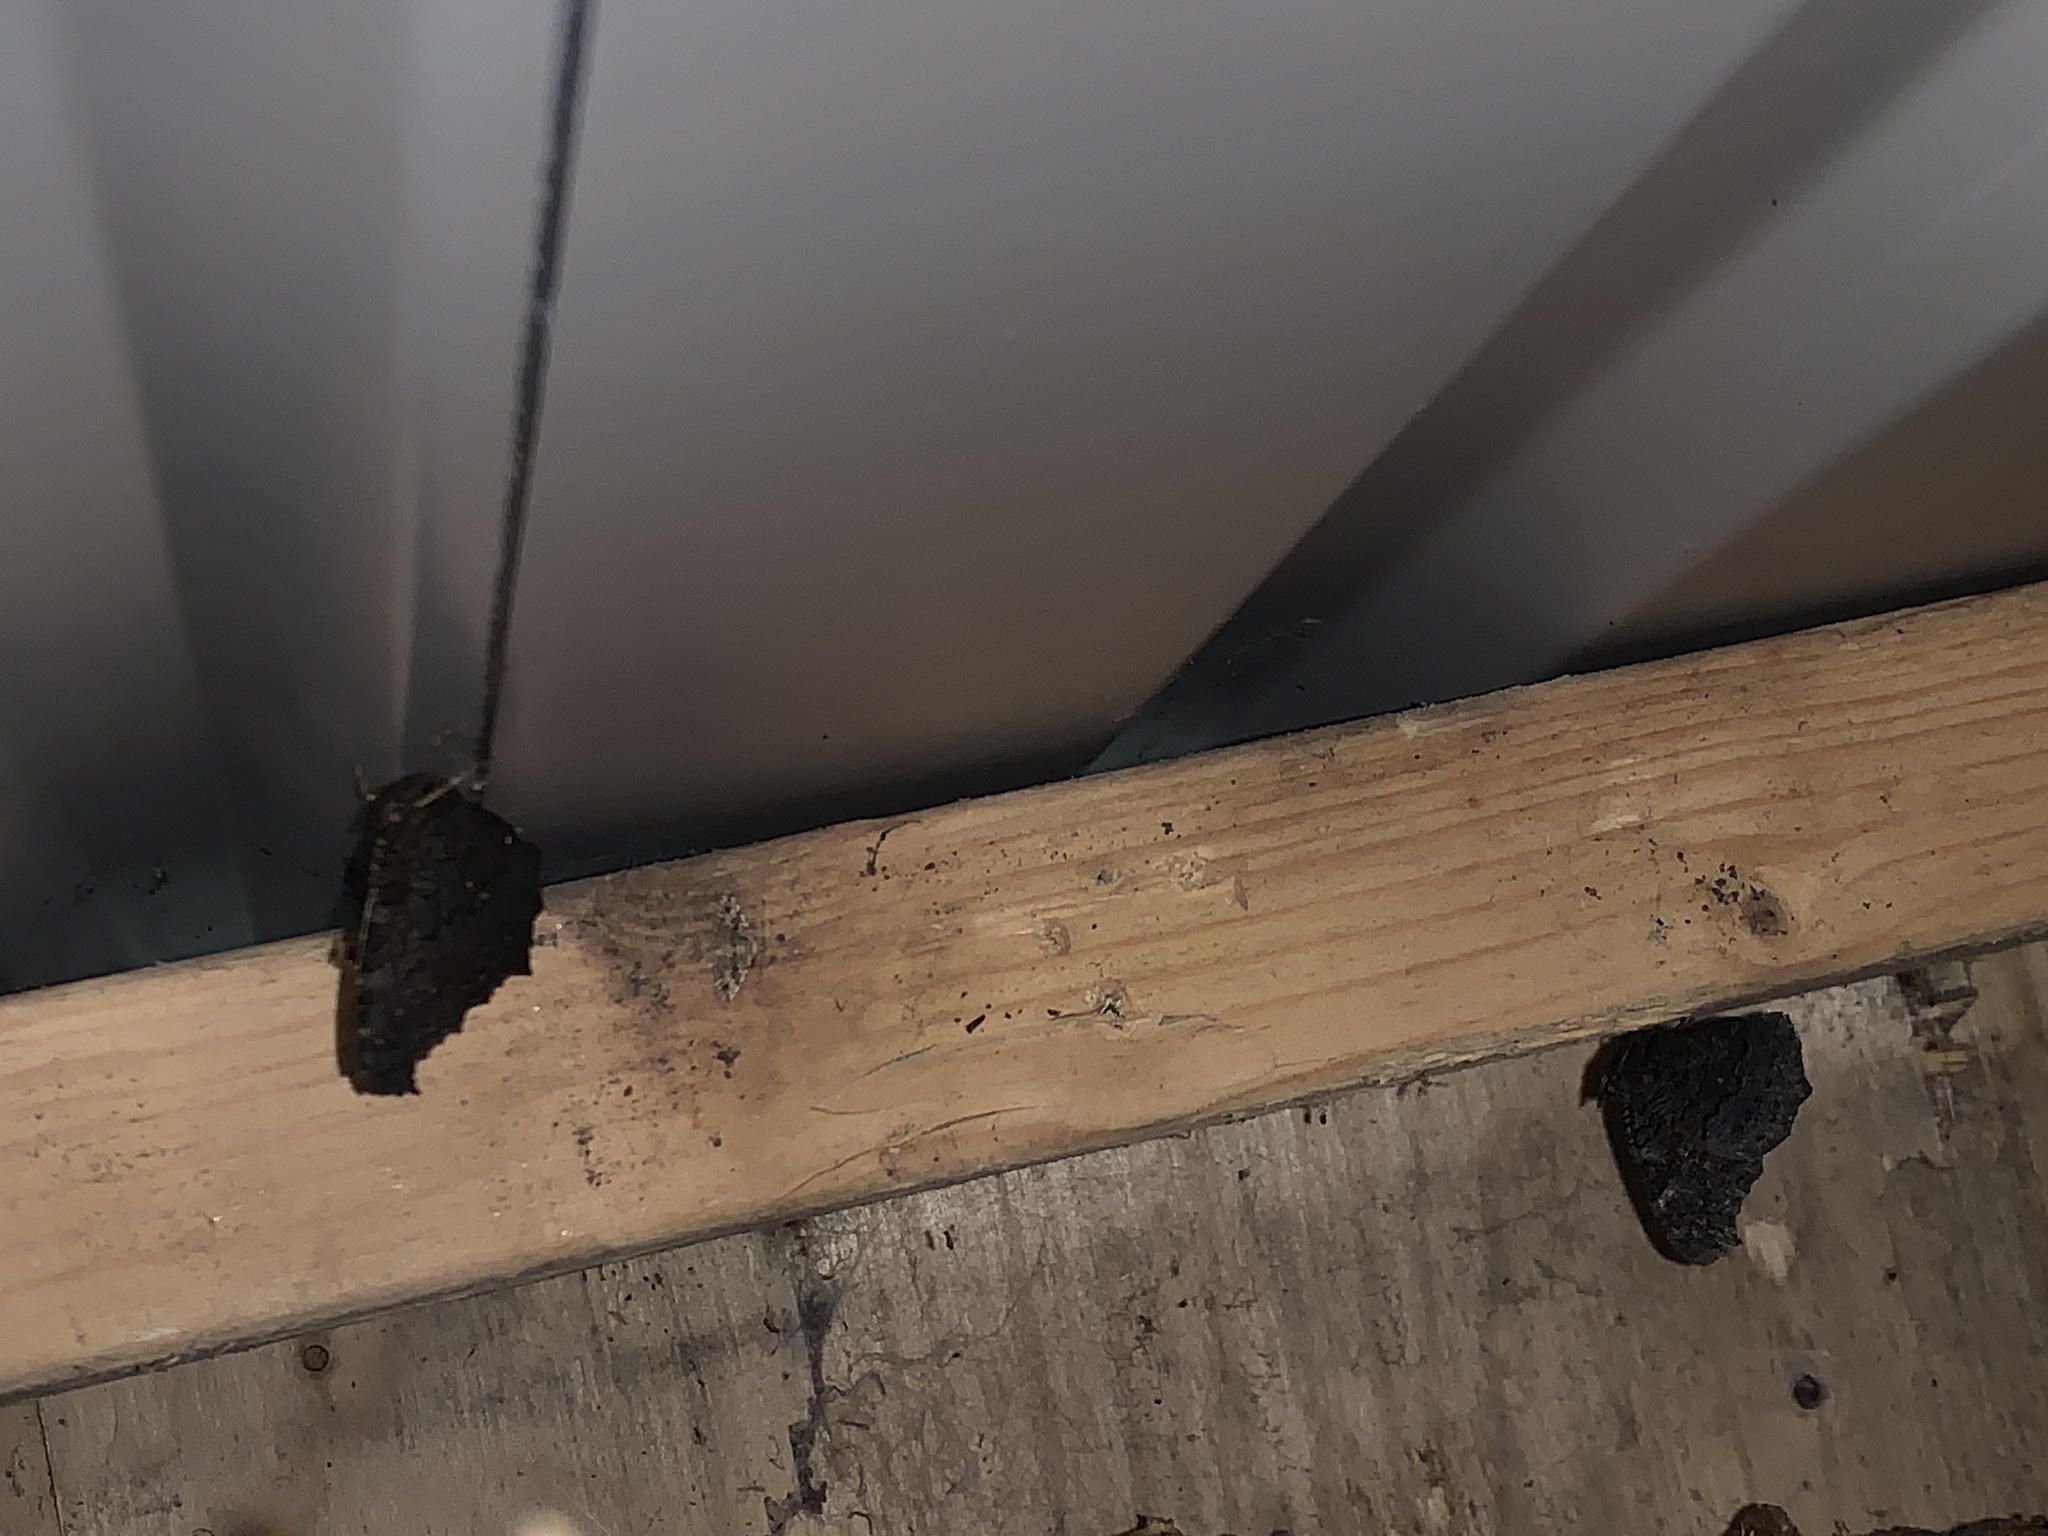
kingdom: Animalia
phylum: Arthropoda
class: Insecta
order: Lepidoptera
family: Nymphalidae
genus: Aglais
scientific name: Aglais io
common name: Peacock
